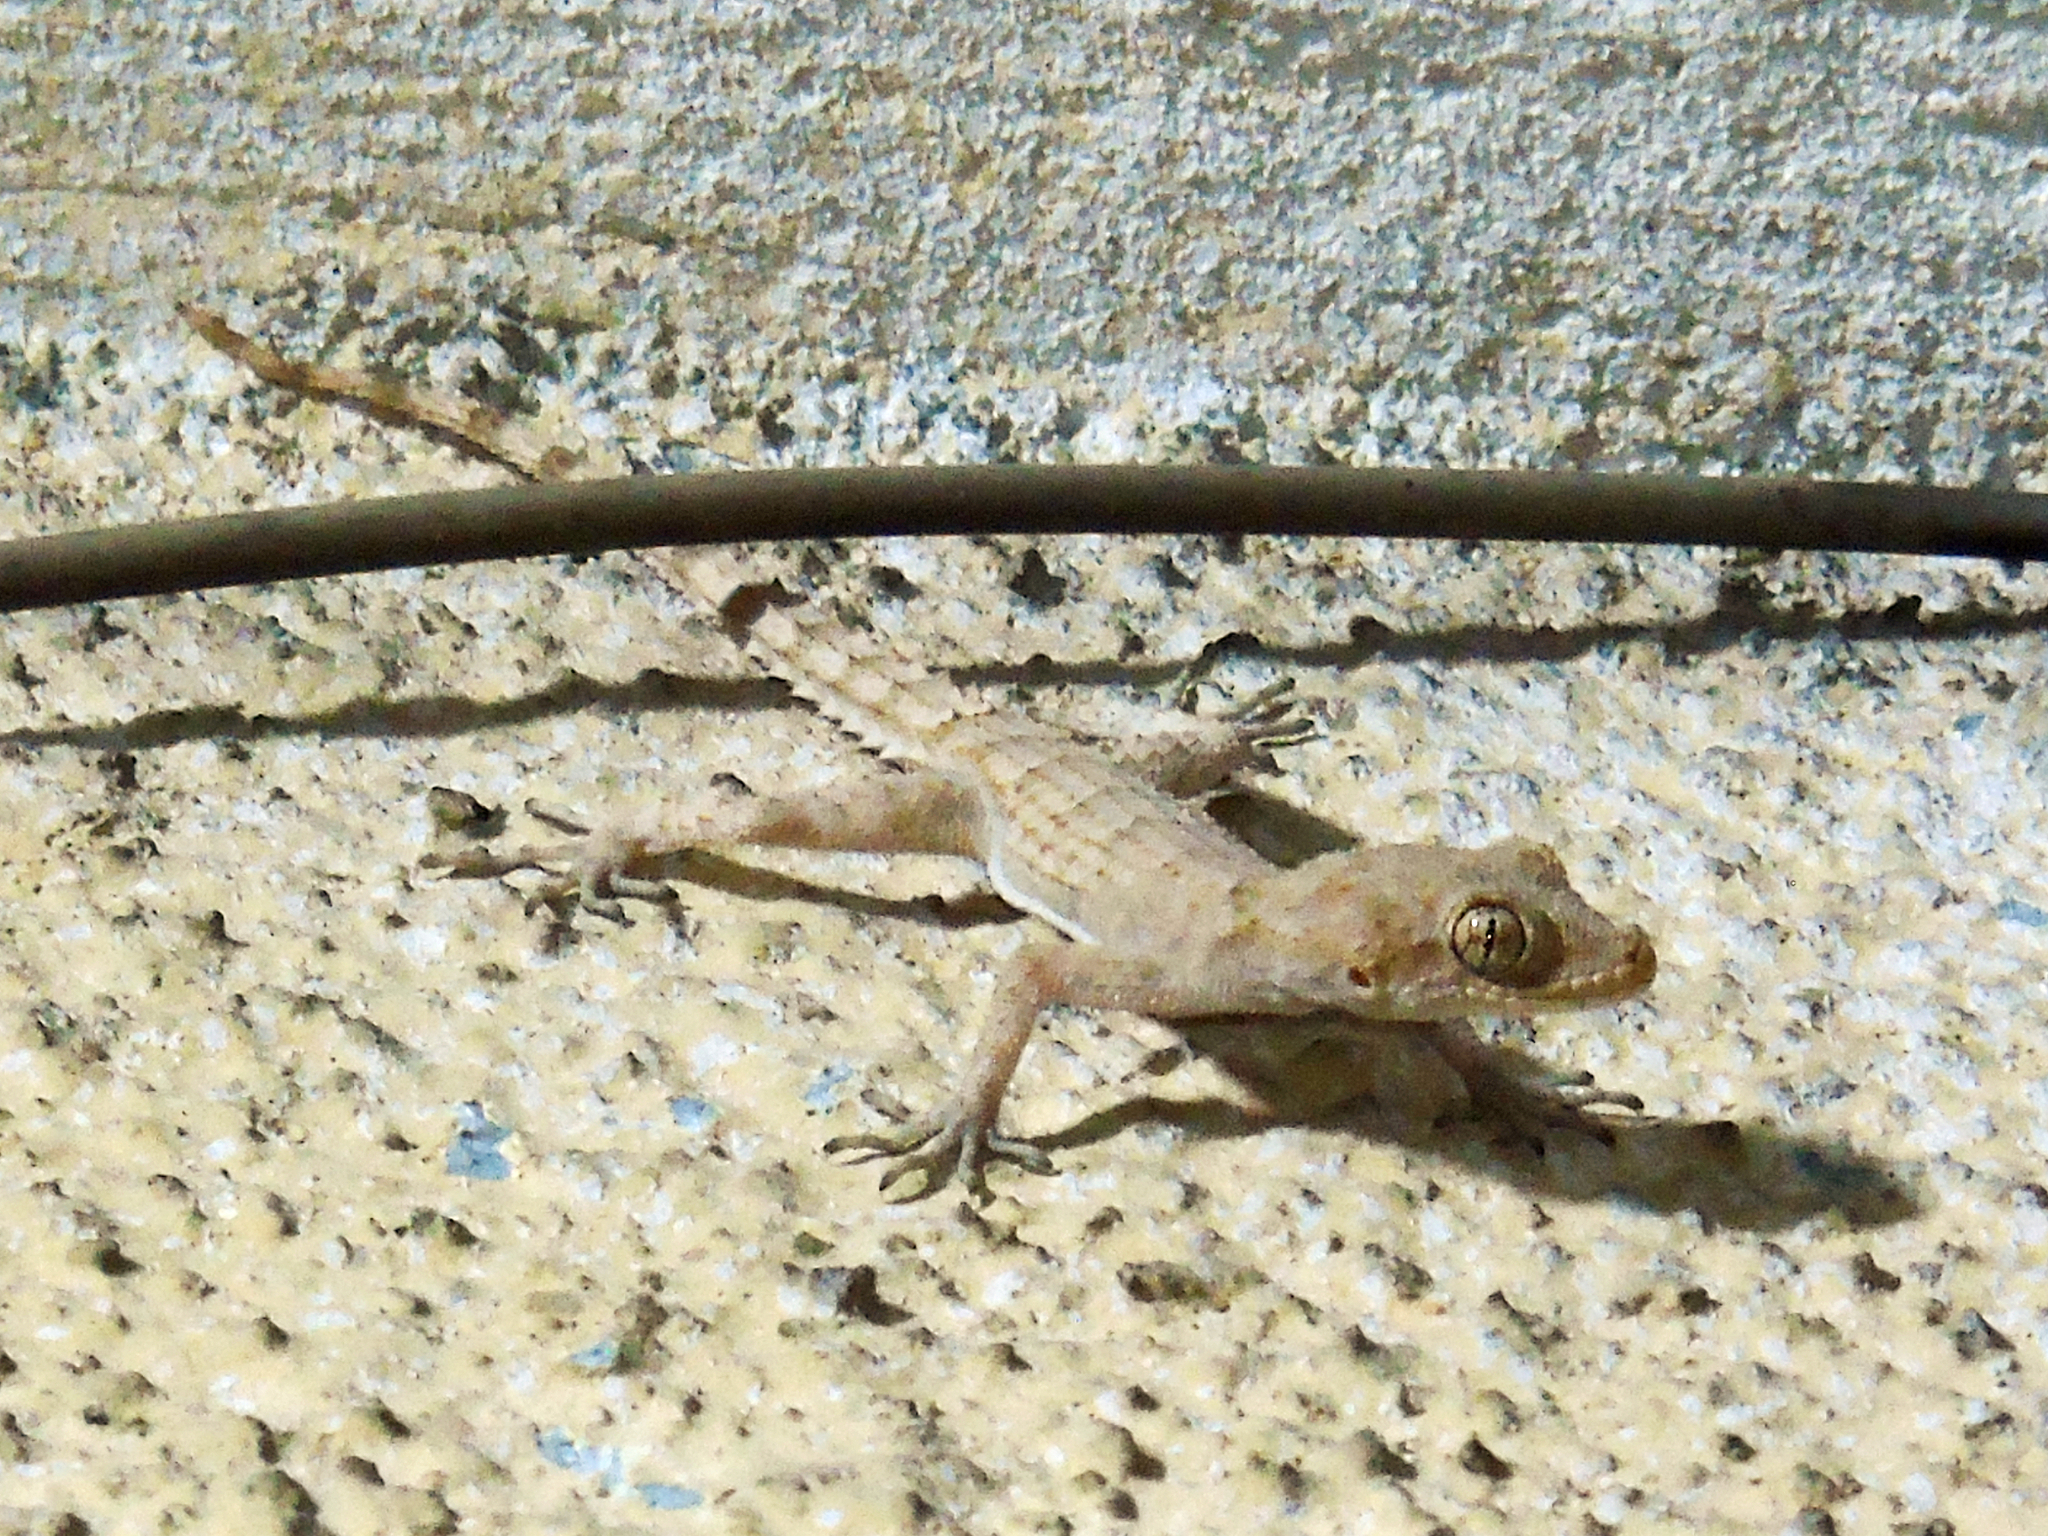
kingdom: Animalia
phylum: Chordata
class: Squamata
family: Gekkonidae
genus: Mediodactylus
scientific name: Mediodactylus heterocercus
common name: Asia minor thin-toed gecko
